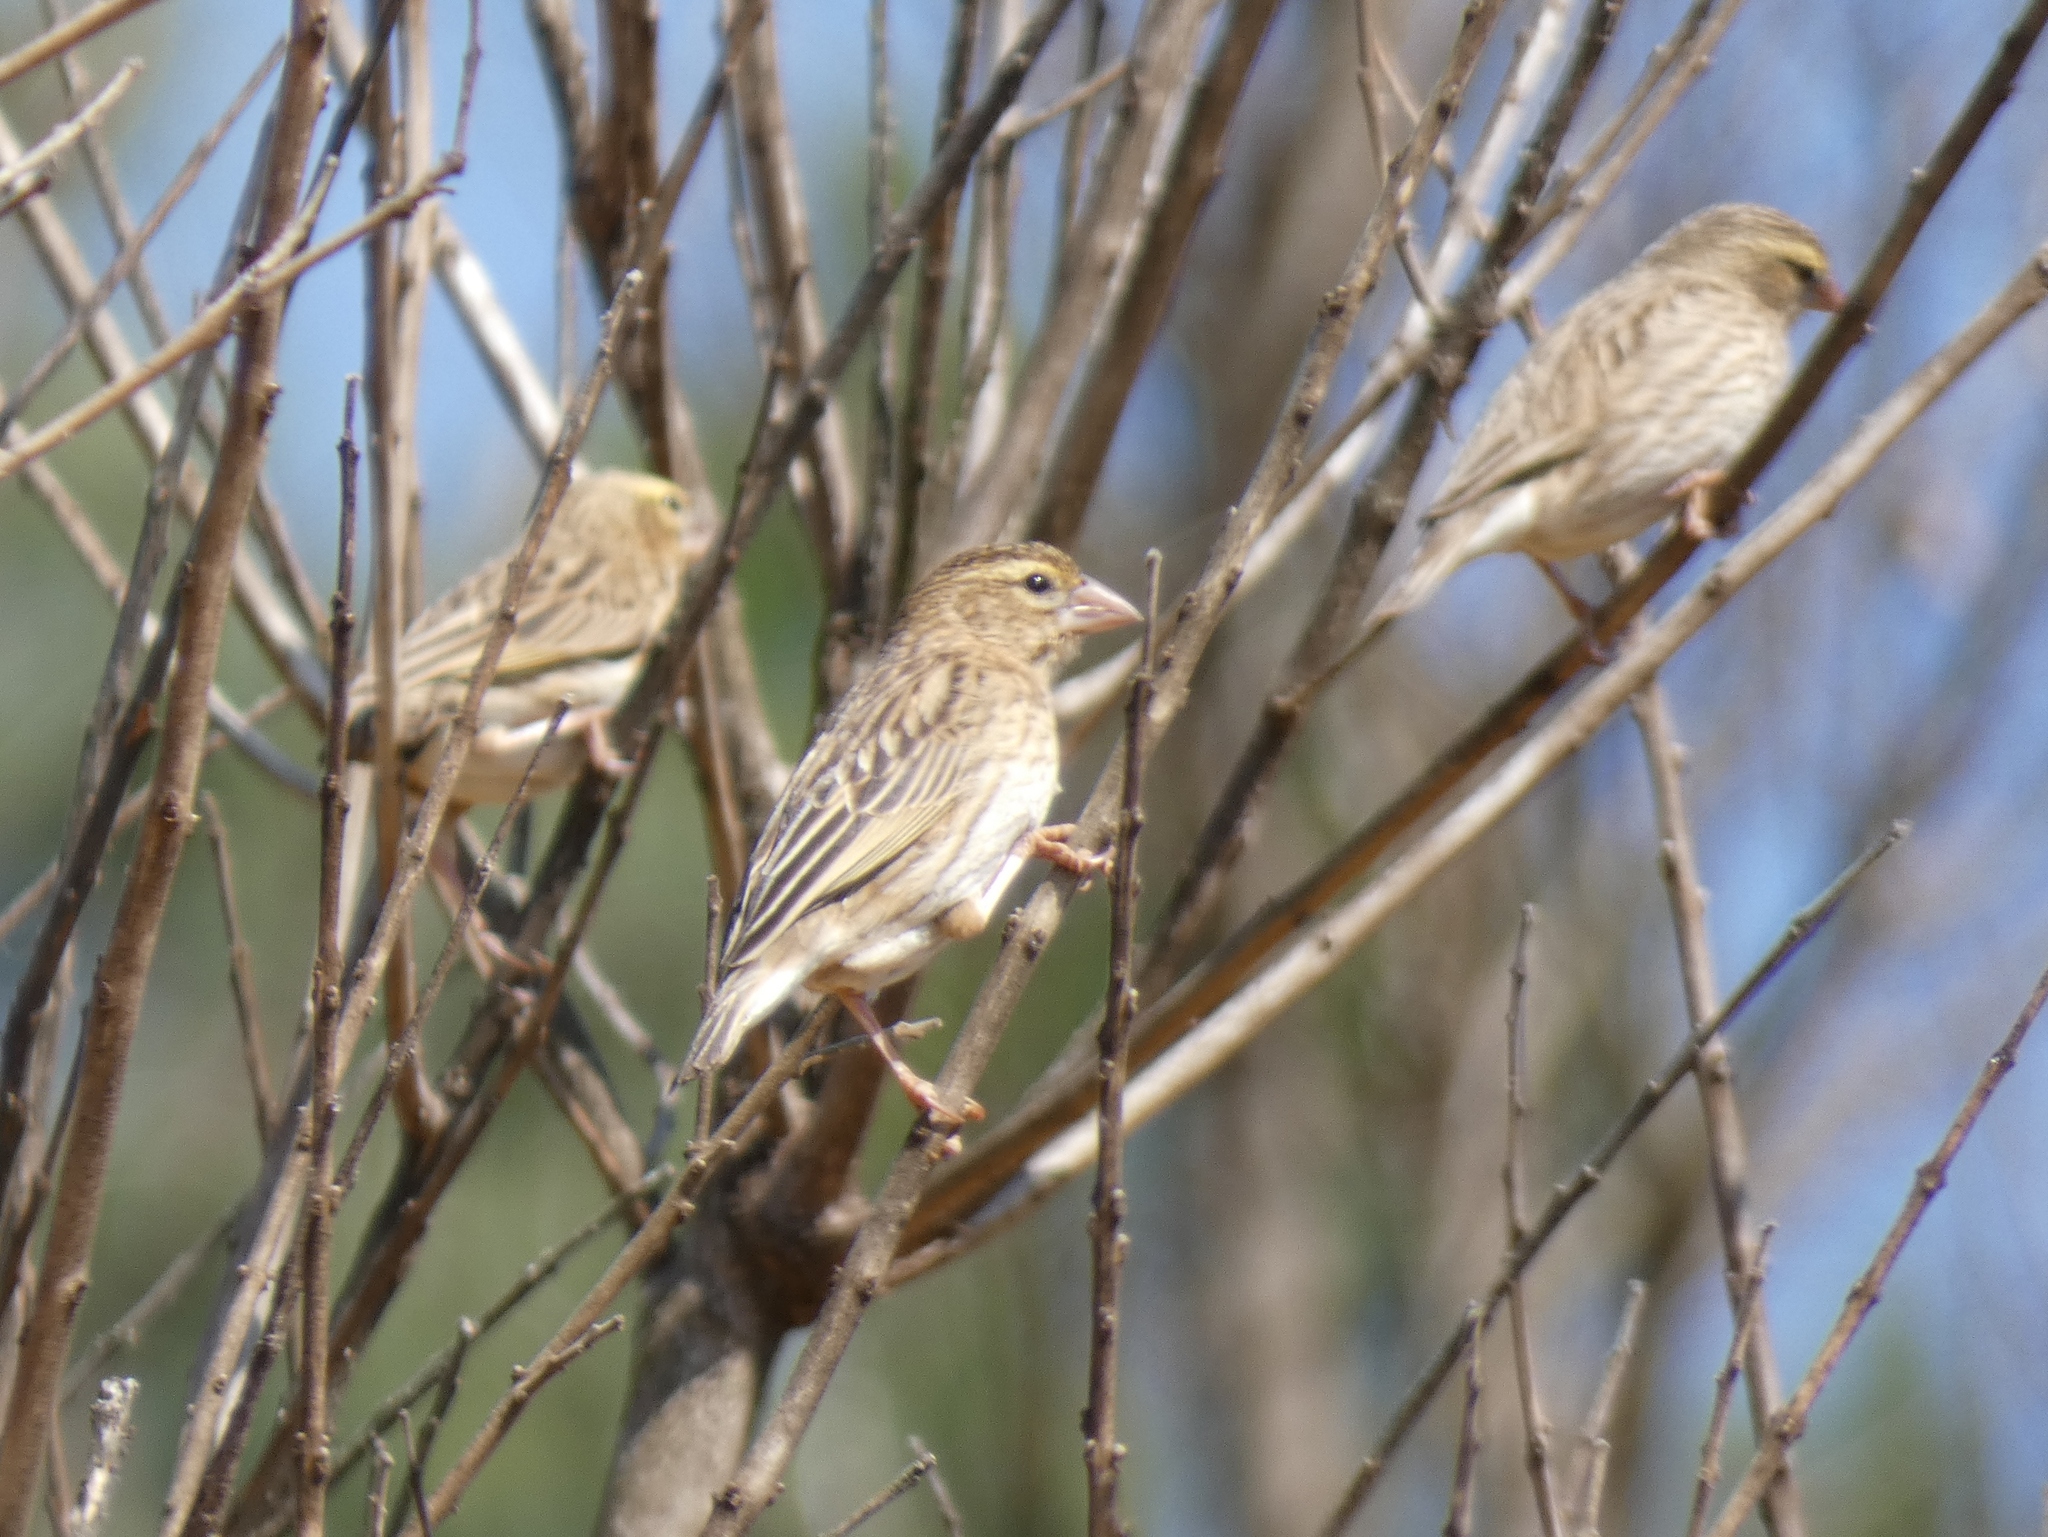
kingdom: Animalia
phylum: Chordata
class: Aves
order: Passeriformes
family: Ploceidae
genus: Euplectes
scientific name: Euplectes orix
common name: Southern red bishop
